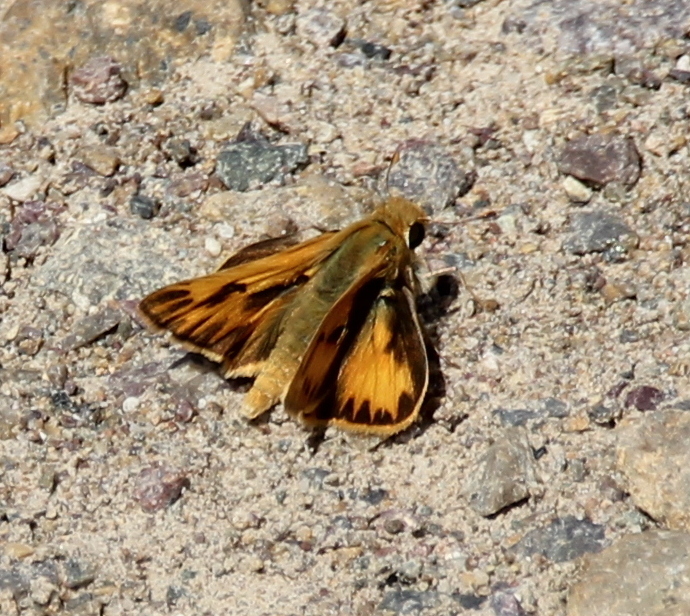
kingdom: Animalia
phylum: Arthropoda
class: Insecta
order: Lepidoptera
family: Hesperiidae
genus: Hylephila
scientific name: Hylephila phyleus
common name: Fiery skipper
